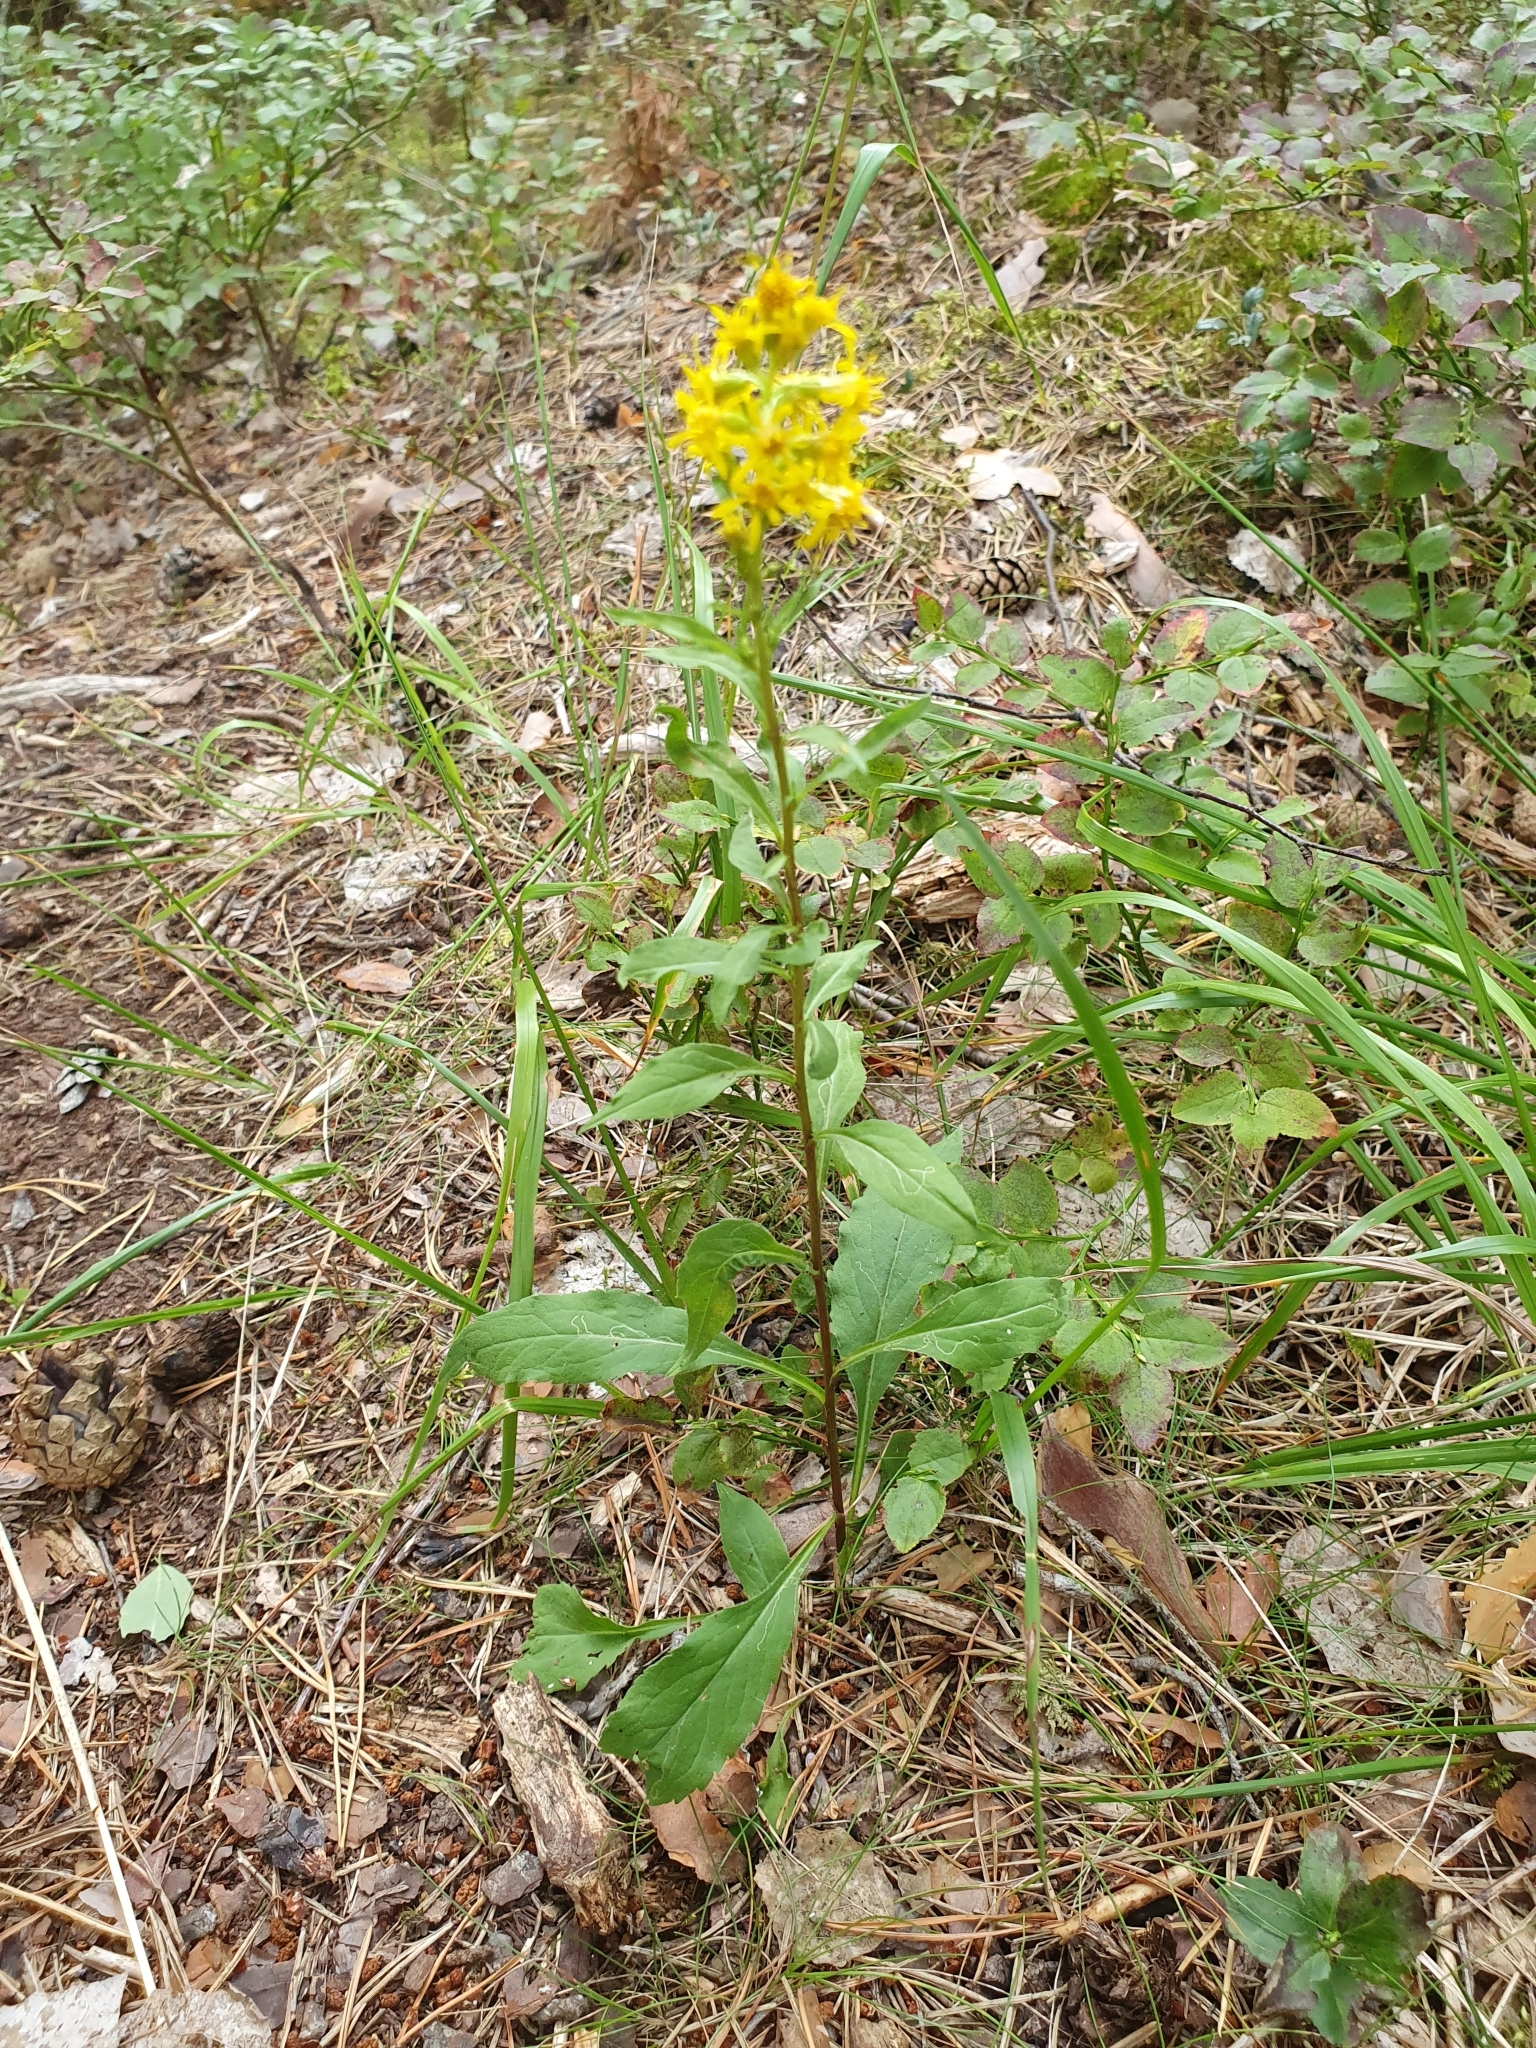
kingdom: Plantae
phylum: Tracheophyta
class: Magnoliopsida
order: Asterales
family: Asteraceae
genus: Solidago
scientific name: Solidago virgaurea
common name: Goldenrod
